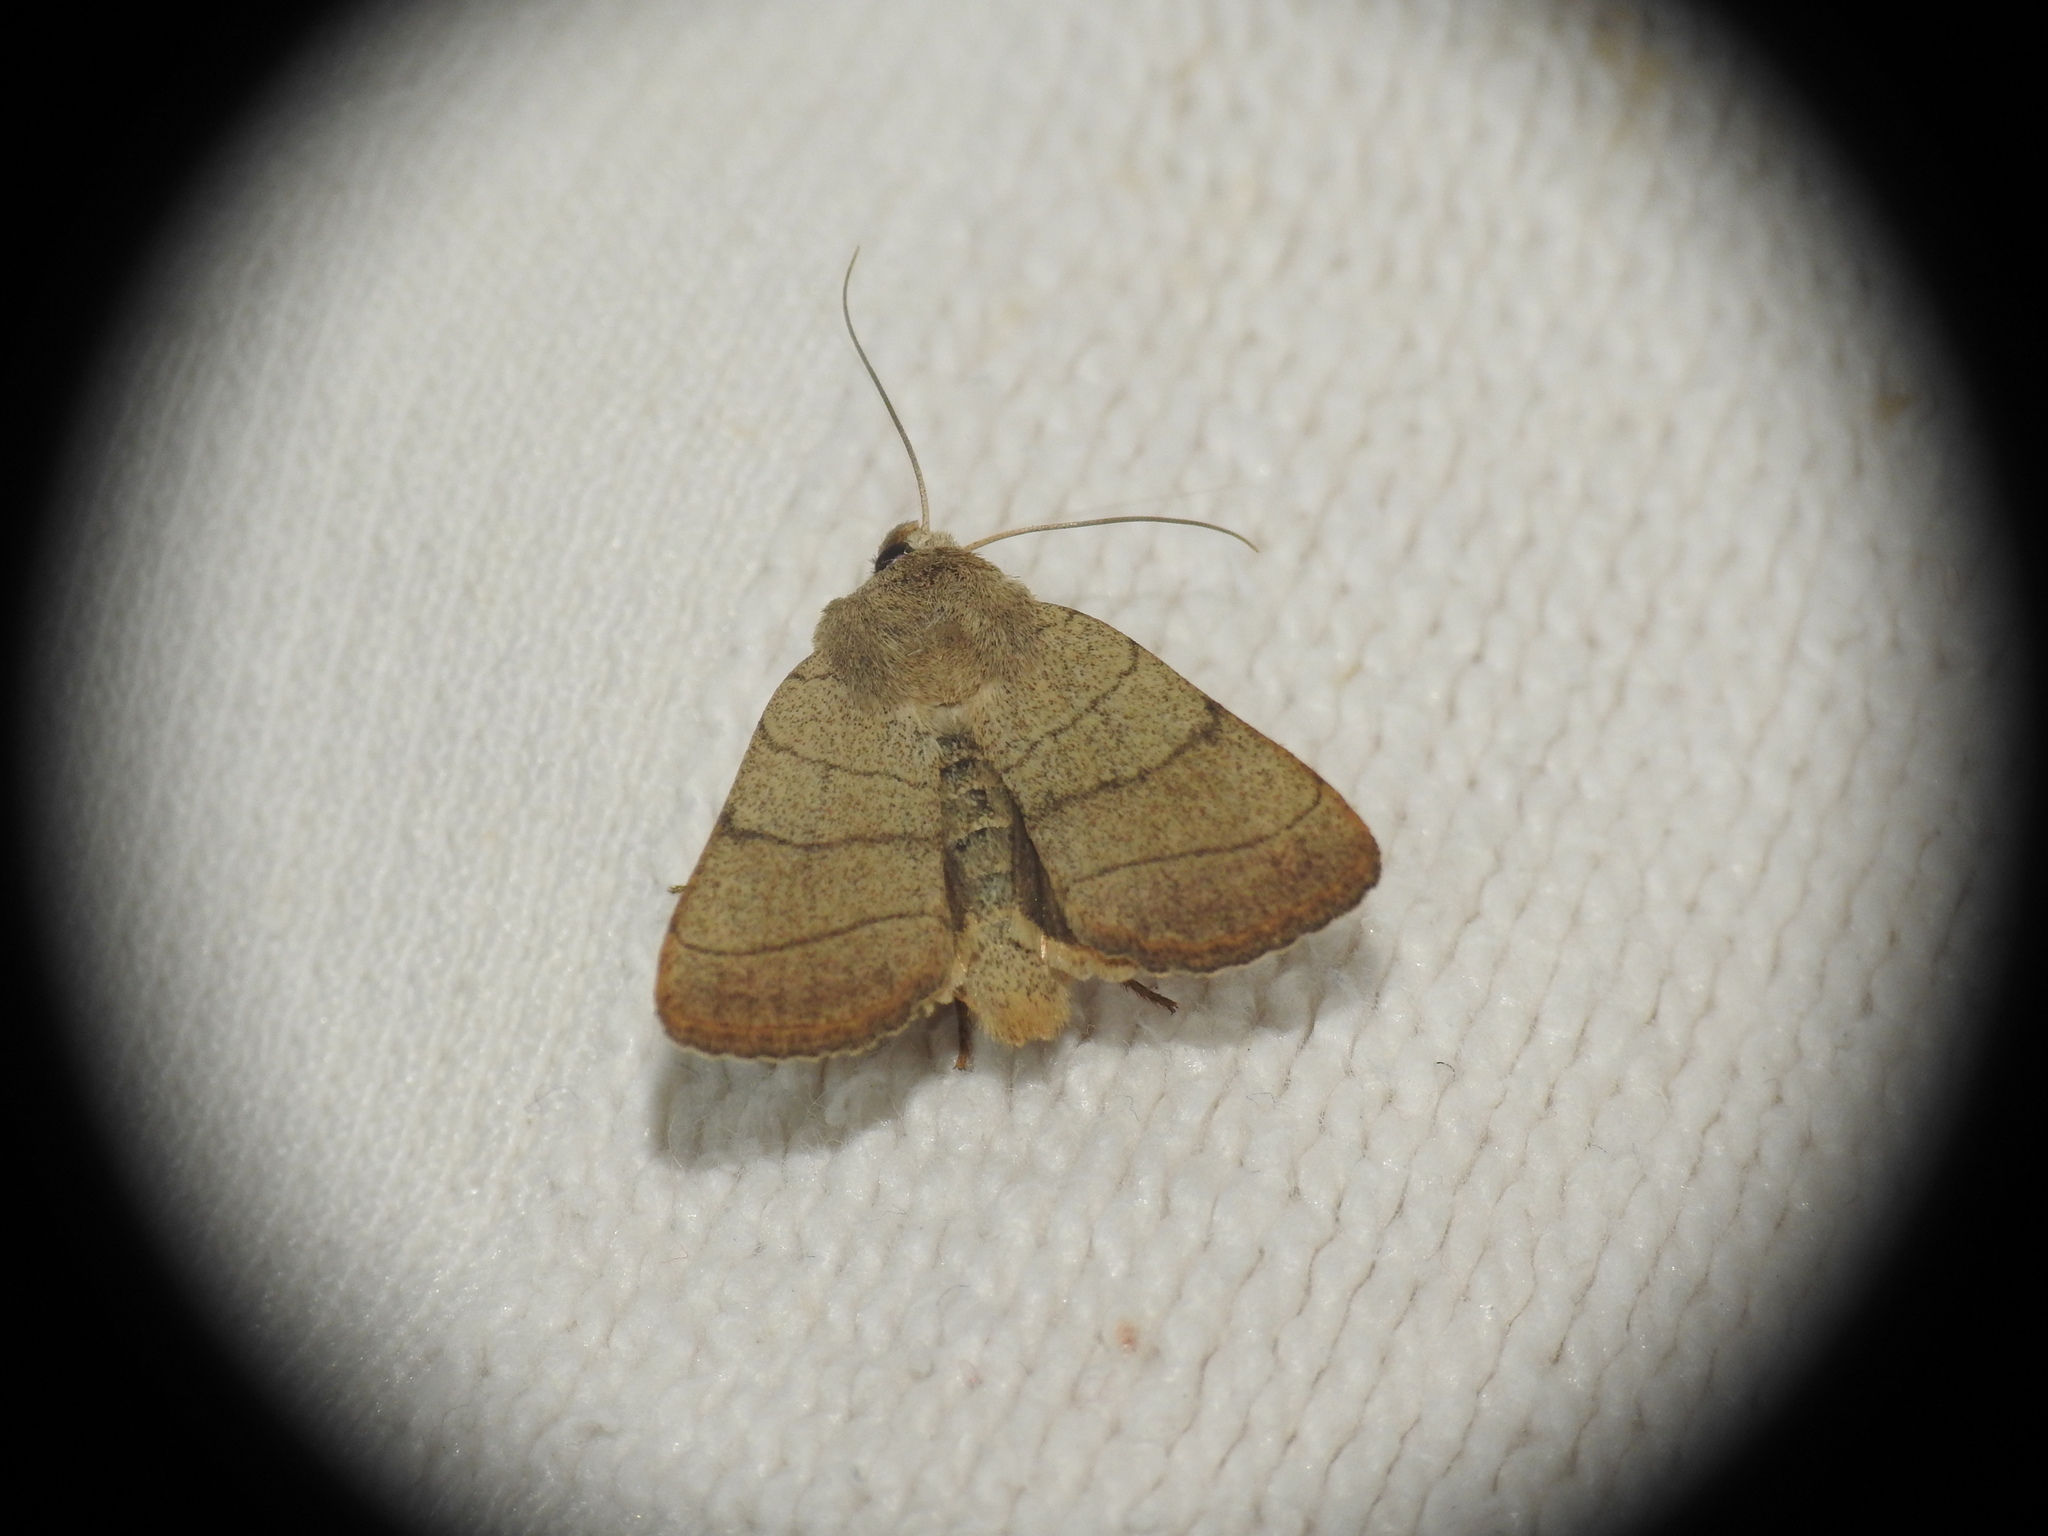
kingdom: Animalia
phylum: Arthropoda
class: Insecta
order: Lepidoptera
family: Noctuidae
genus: Charanyca
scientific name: Charanyca trigrammica
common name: Treble lines
